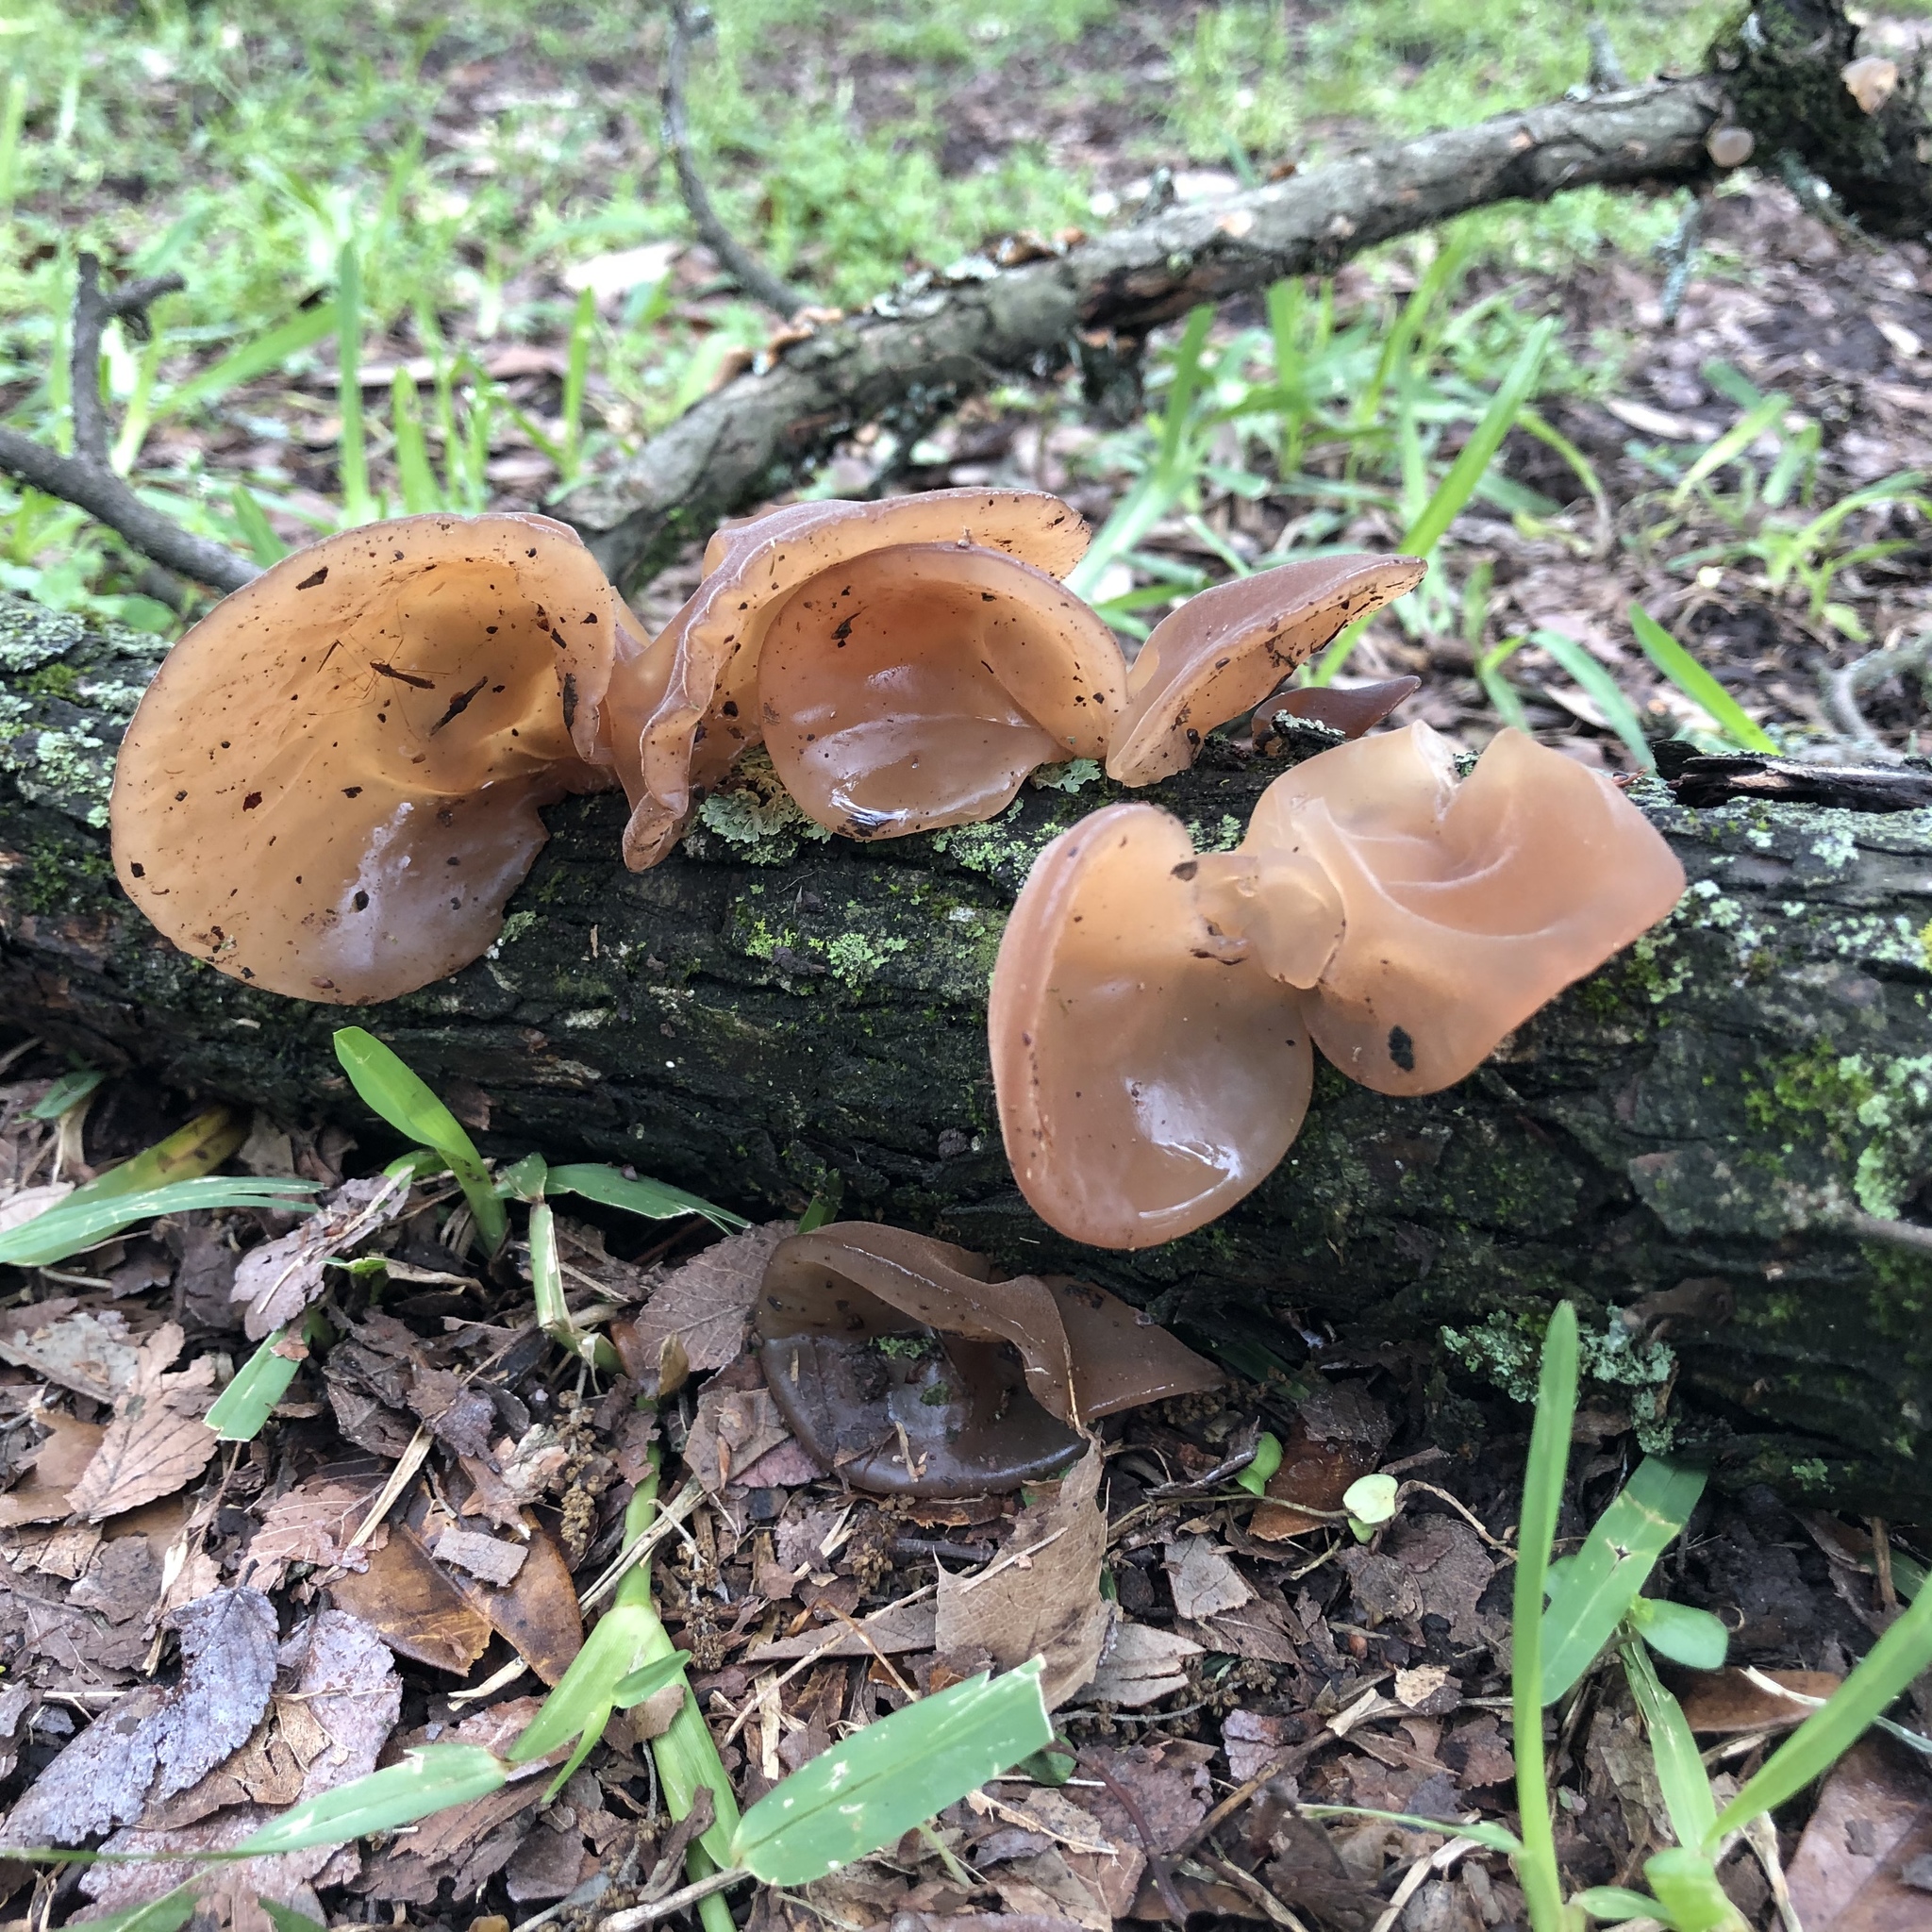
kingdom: Fungi
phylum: Basidiomycota
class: Agaricomycetes
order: Auriculariales
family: Auriculariaceae
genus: Auricularia
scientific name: Auricularia
